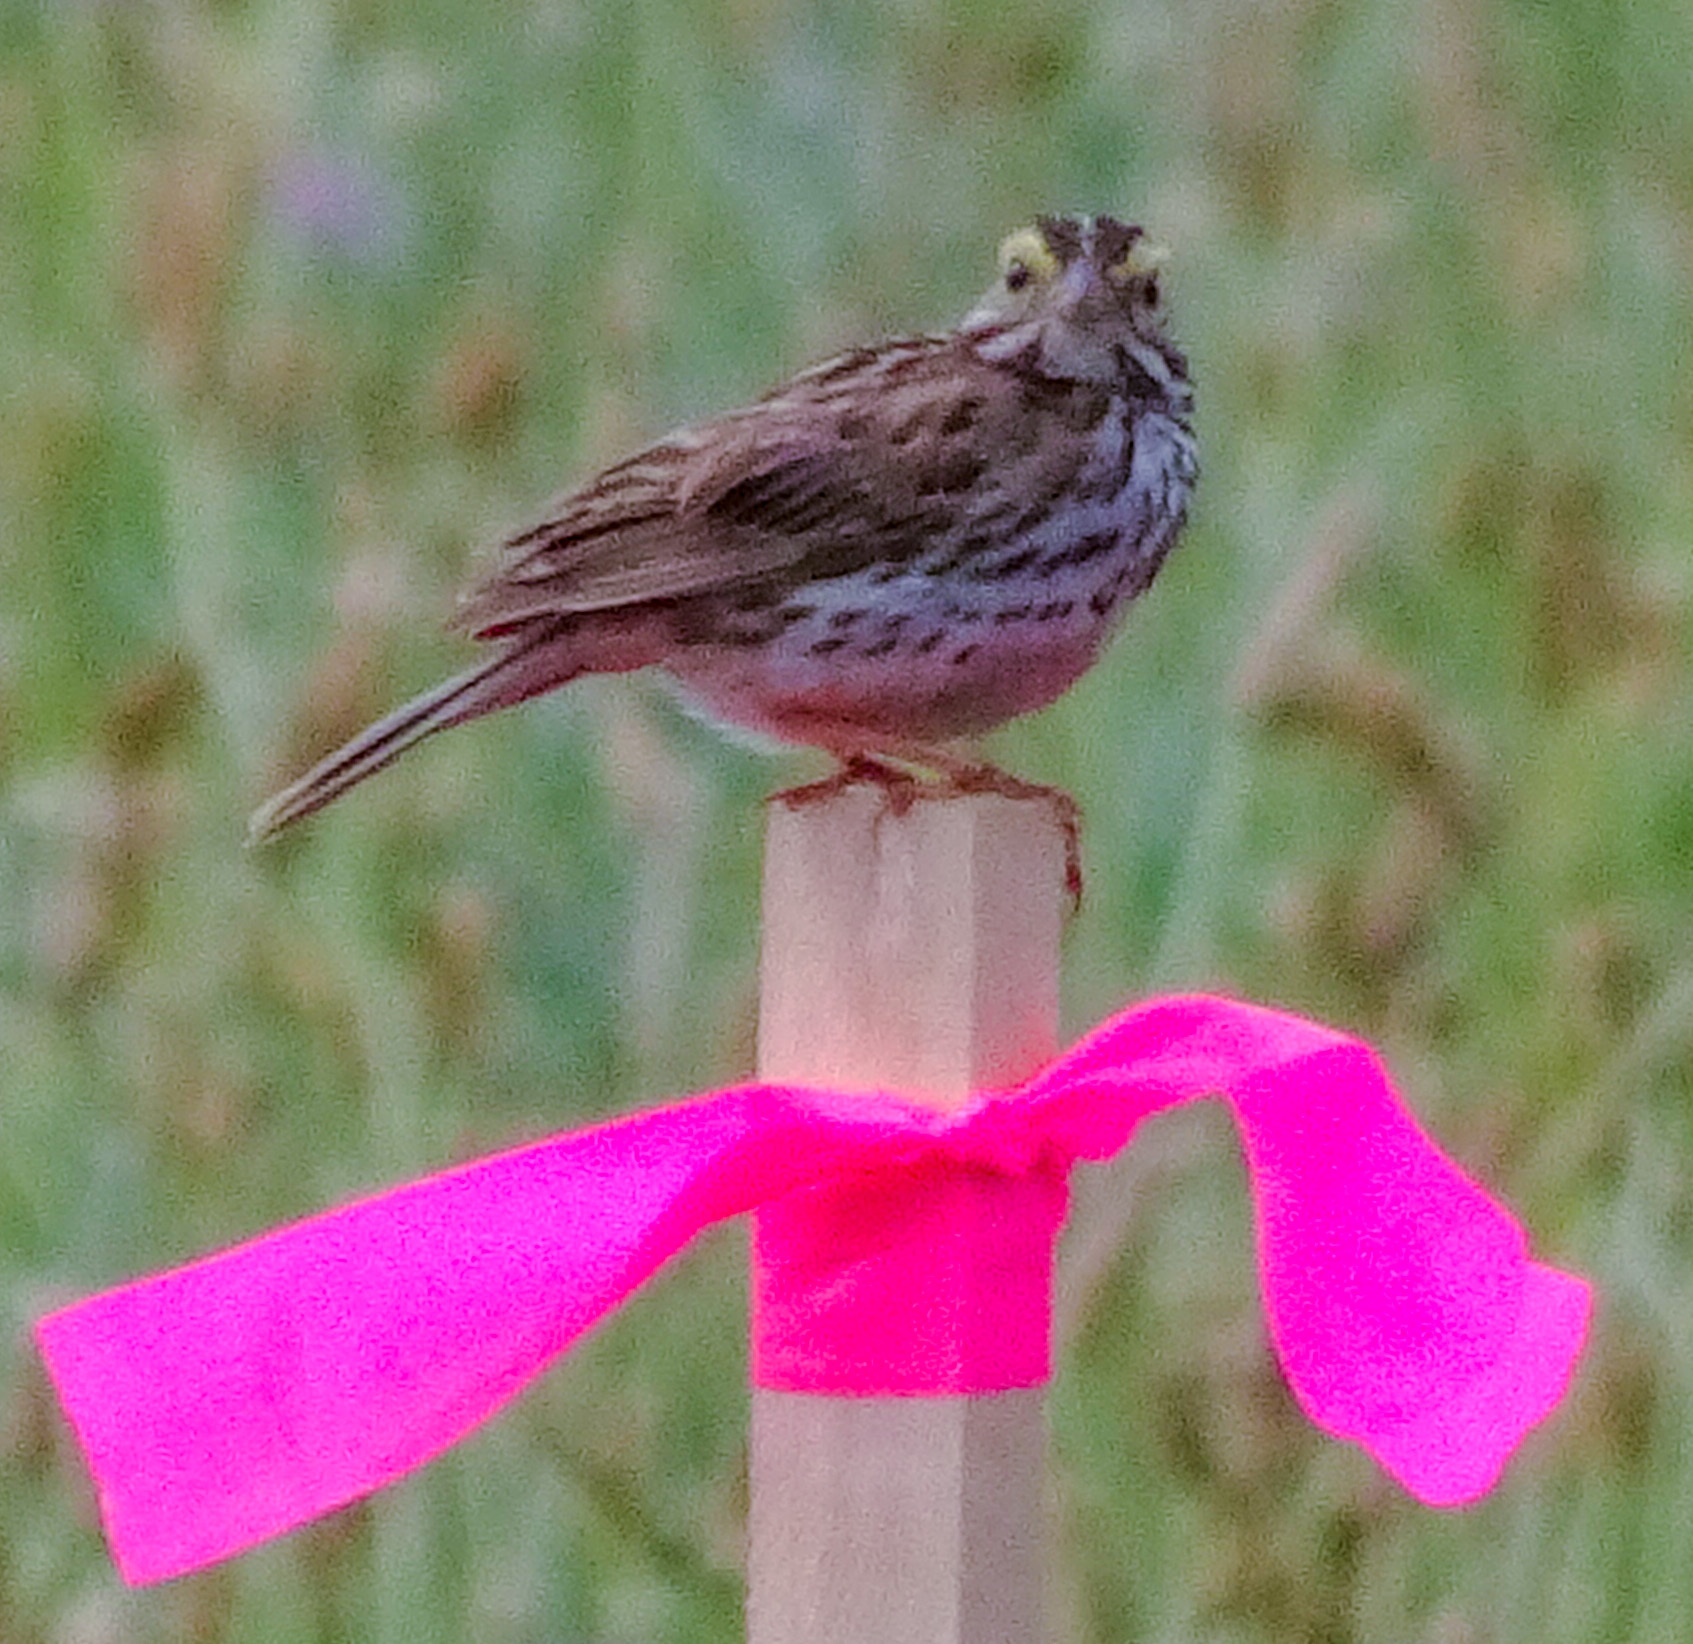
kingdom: Animalia
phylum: Chordata
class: Aves
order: Passeriformes
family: Passerellidae
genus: Passerculus
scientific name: Passerculus sandwichensis
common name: Savannah sparrow
